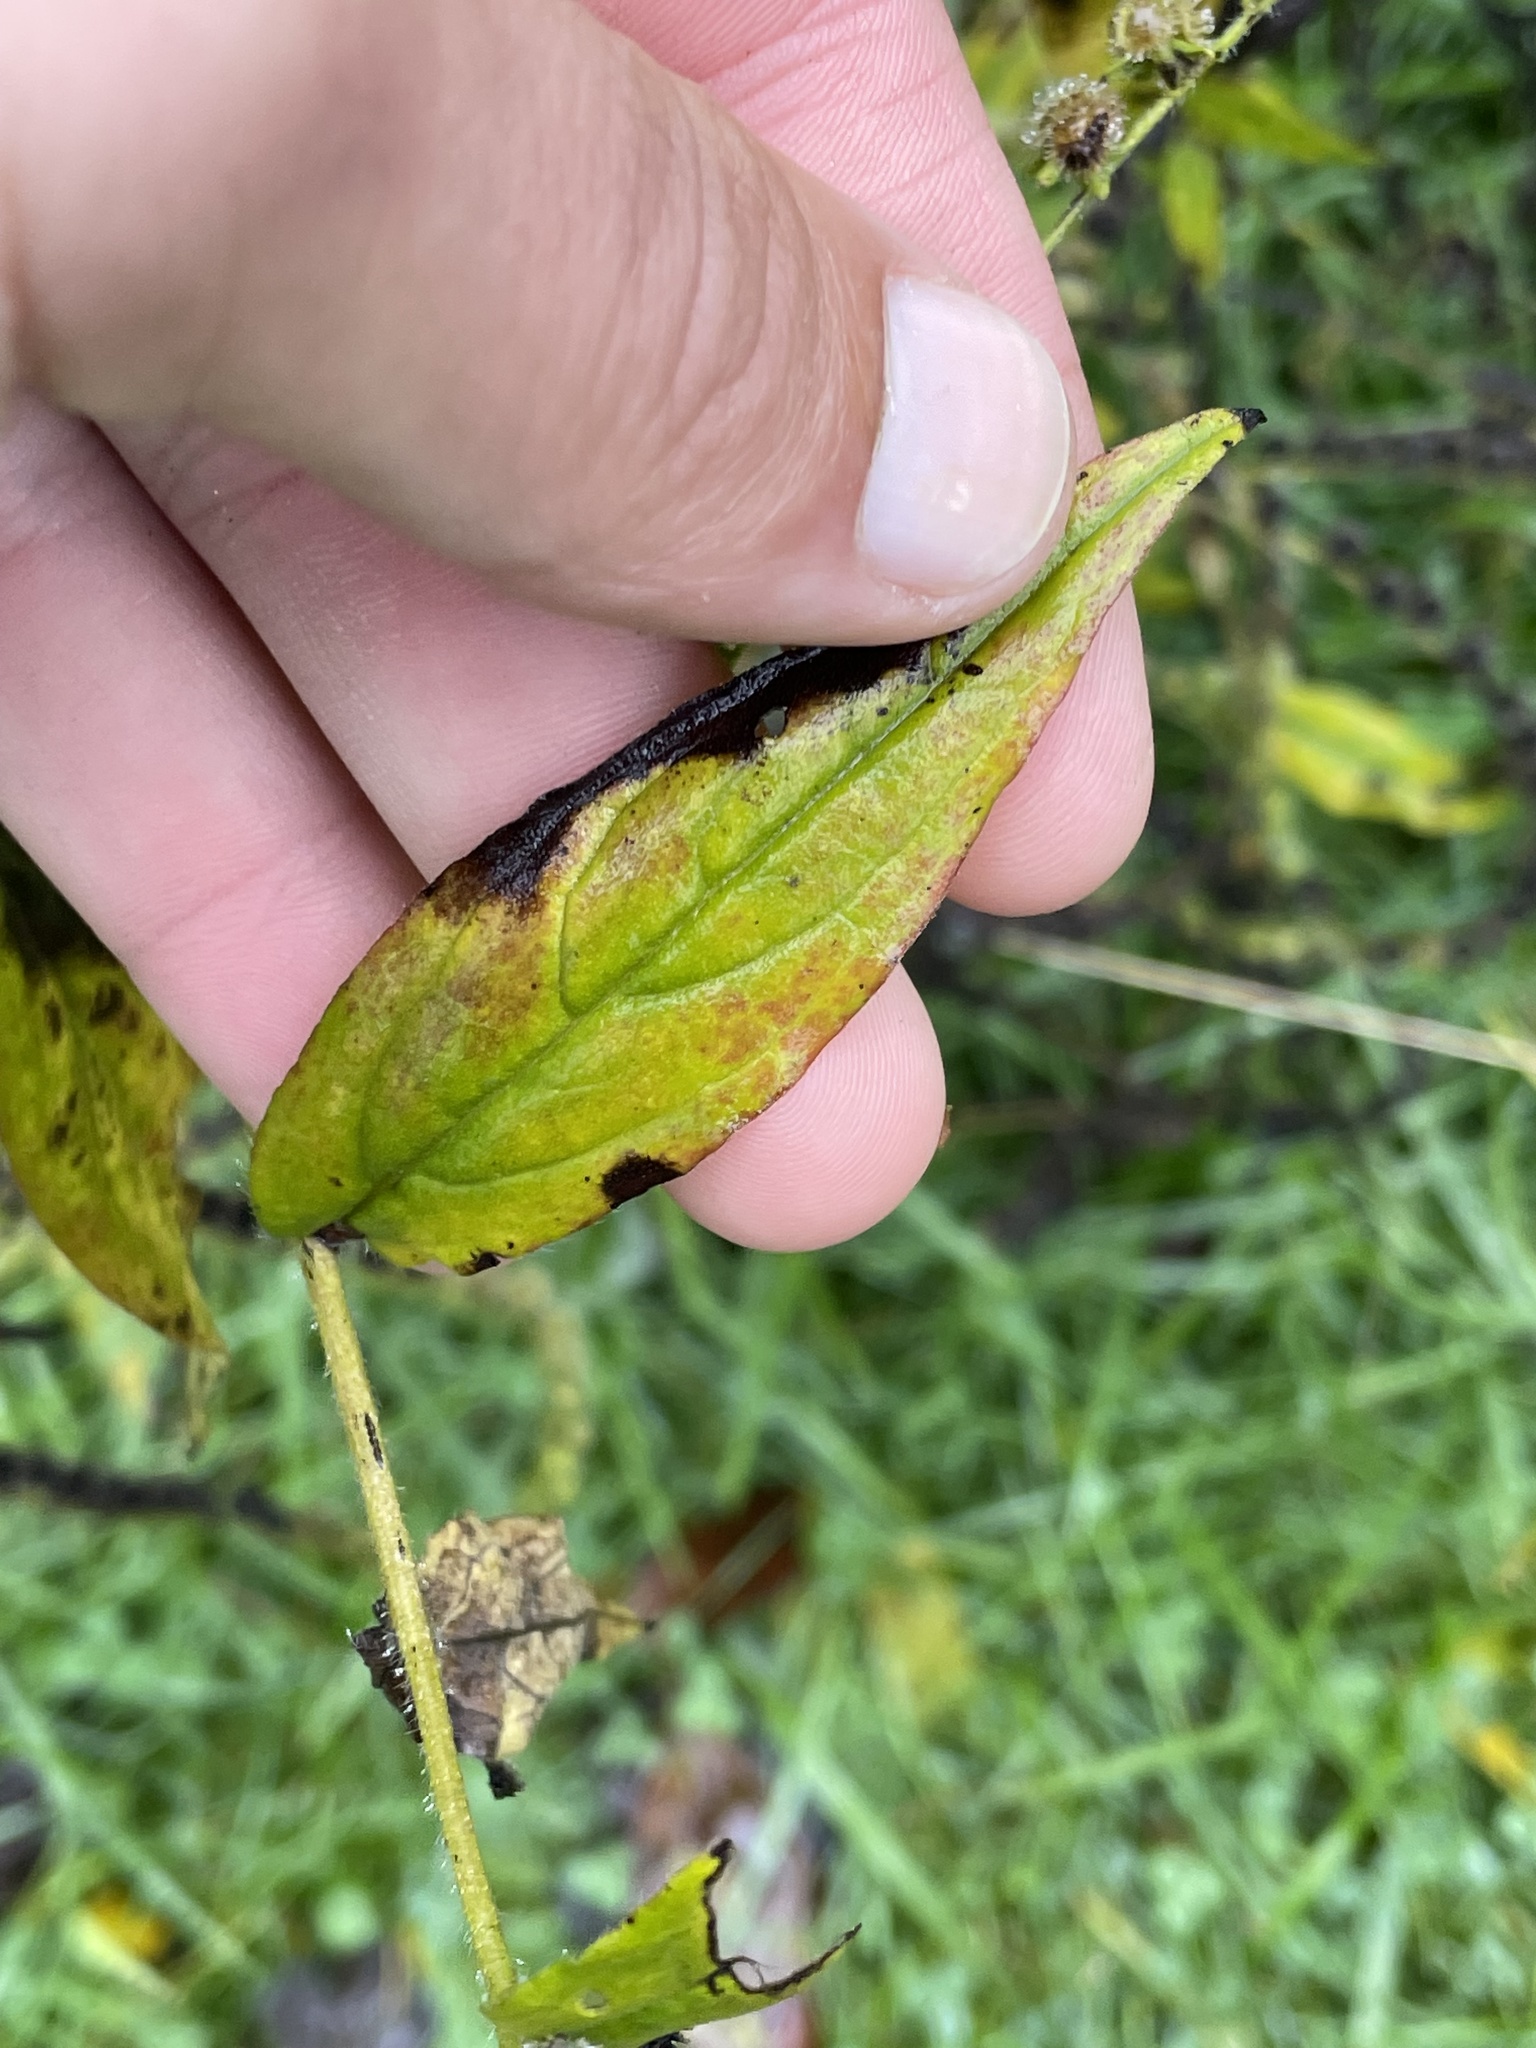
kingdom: Plantae
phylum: Tracheophyta
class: Magnoliopsida
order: Boraginales
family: Boraginaceae
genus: Hackelia
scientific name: Hackelia virginiana
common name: Beggar's-lice
